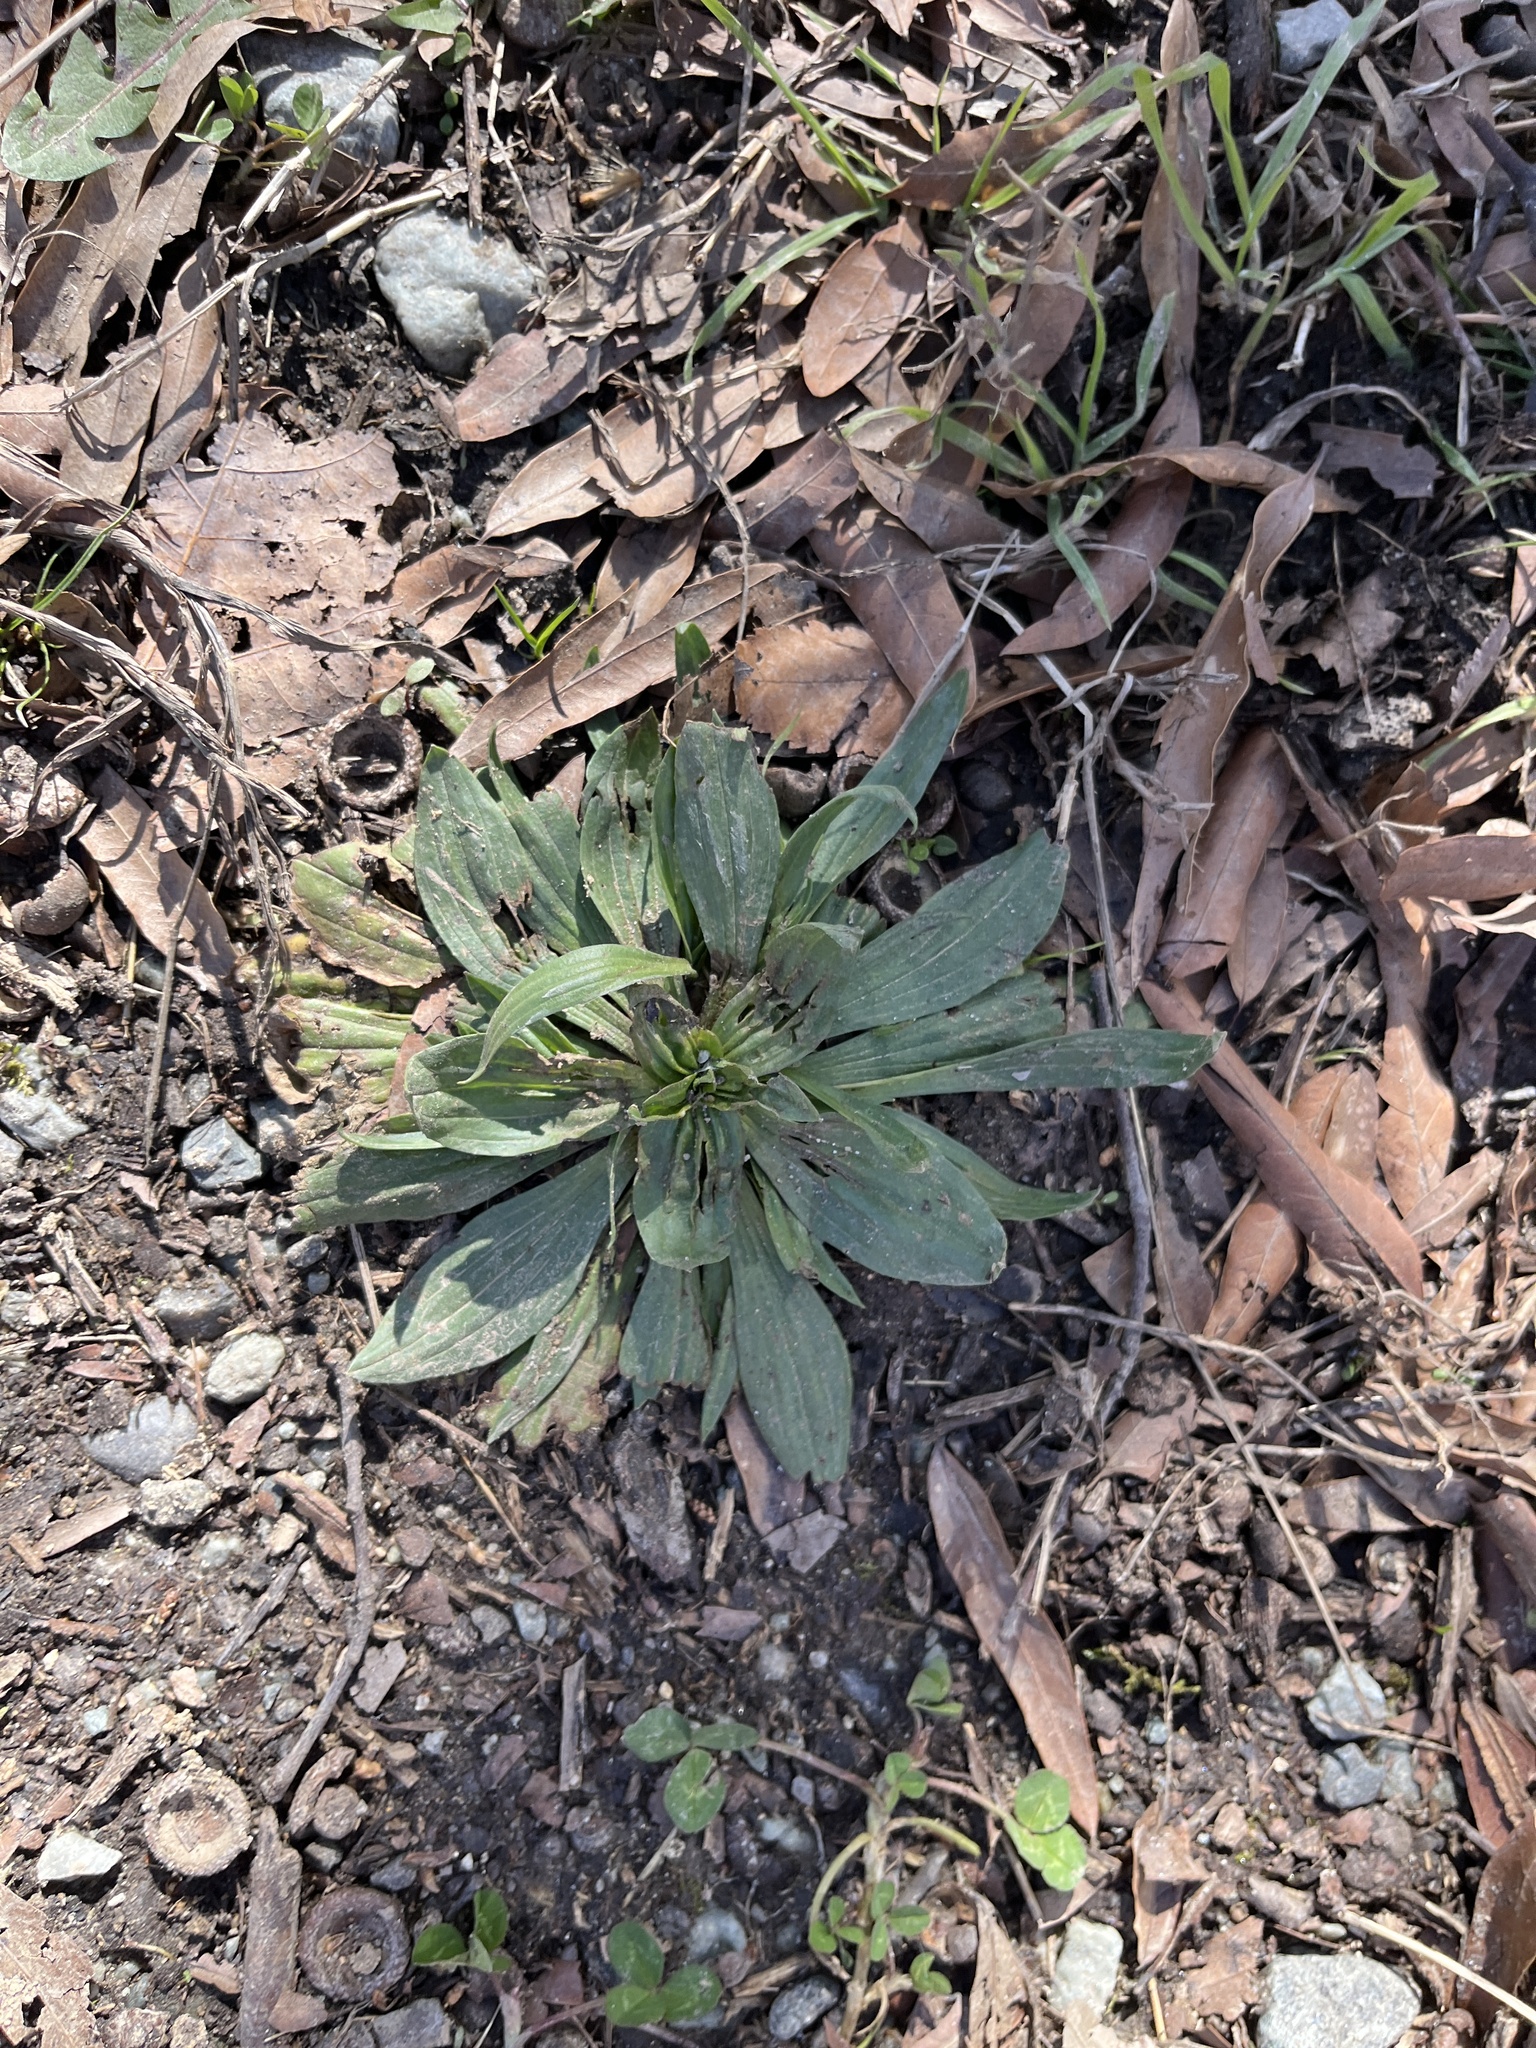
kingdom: Plantae
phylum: Tracheophyta
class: Magnoliopsida
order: Lamiales
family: Plantaginaceae
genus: Plantago
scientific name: Plantago lanceolata
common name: Ribwort plantain
